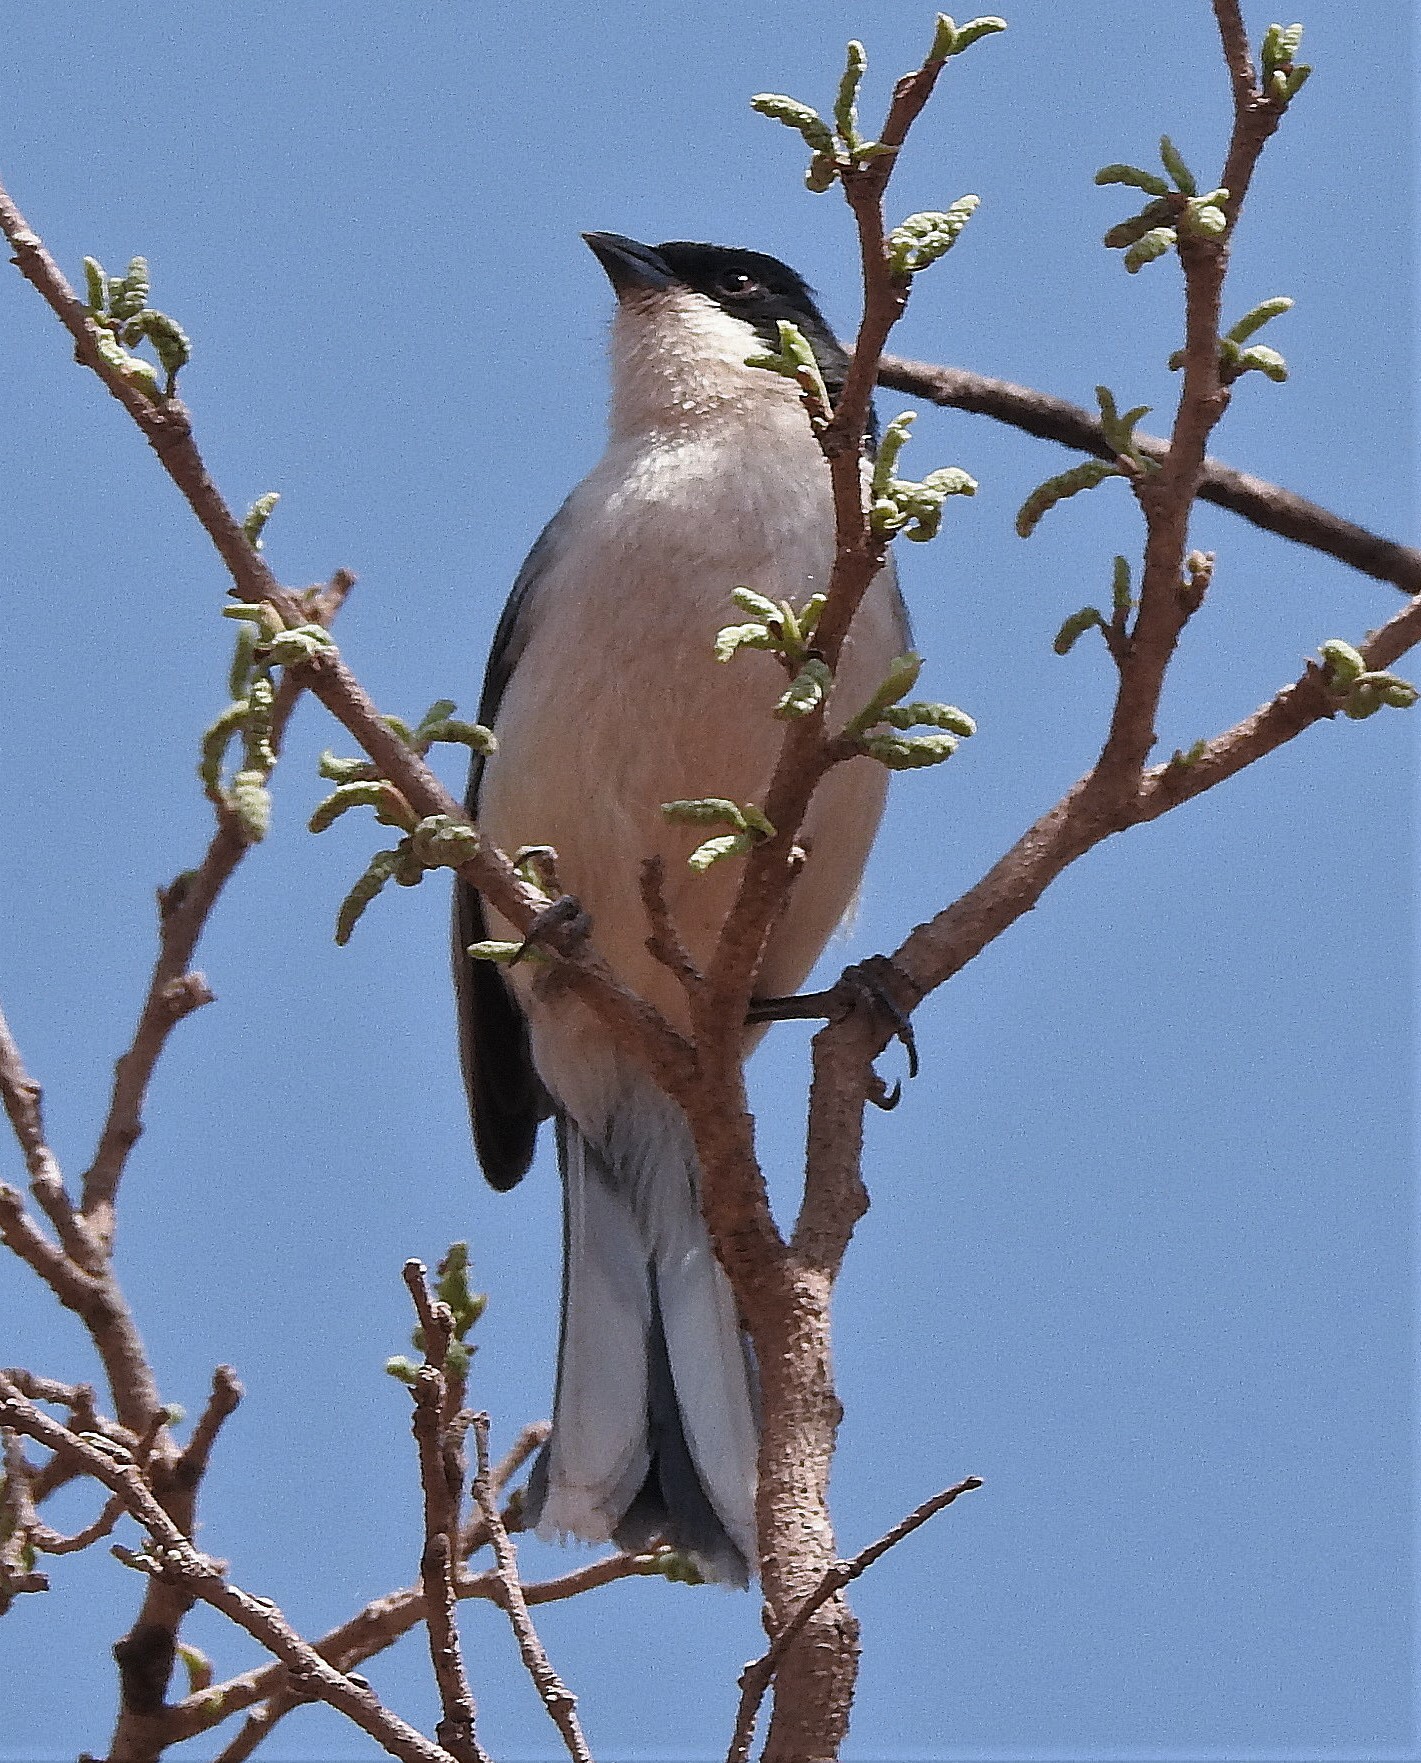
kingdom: Animalia
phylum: Chordata
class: Aves
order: Passeriformes
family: Thraupidae
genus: Microspingus
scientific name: Microspingus melanoleucus
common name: Black-capped warbling-finch
